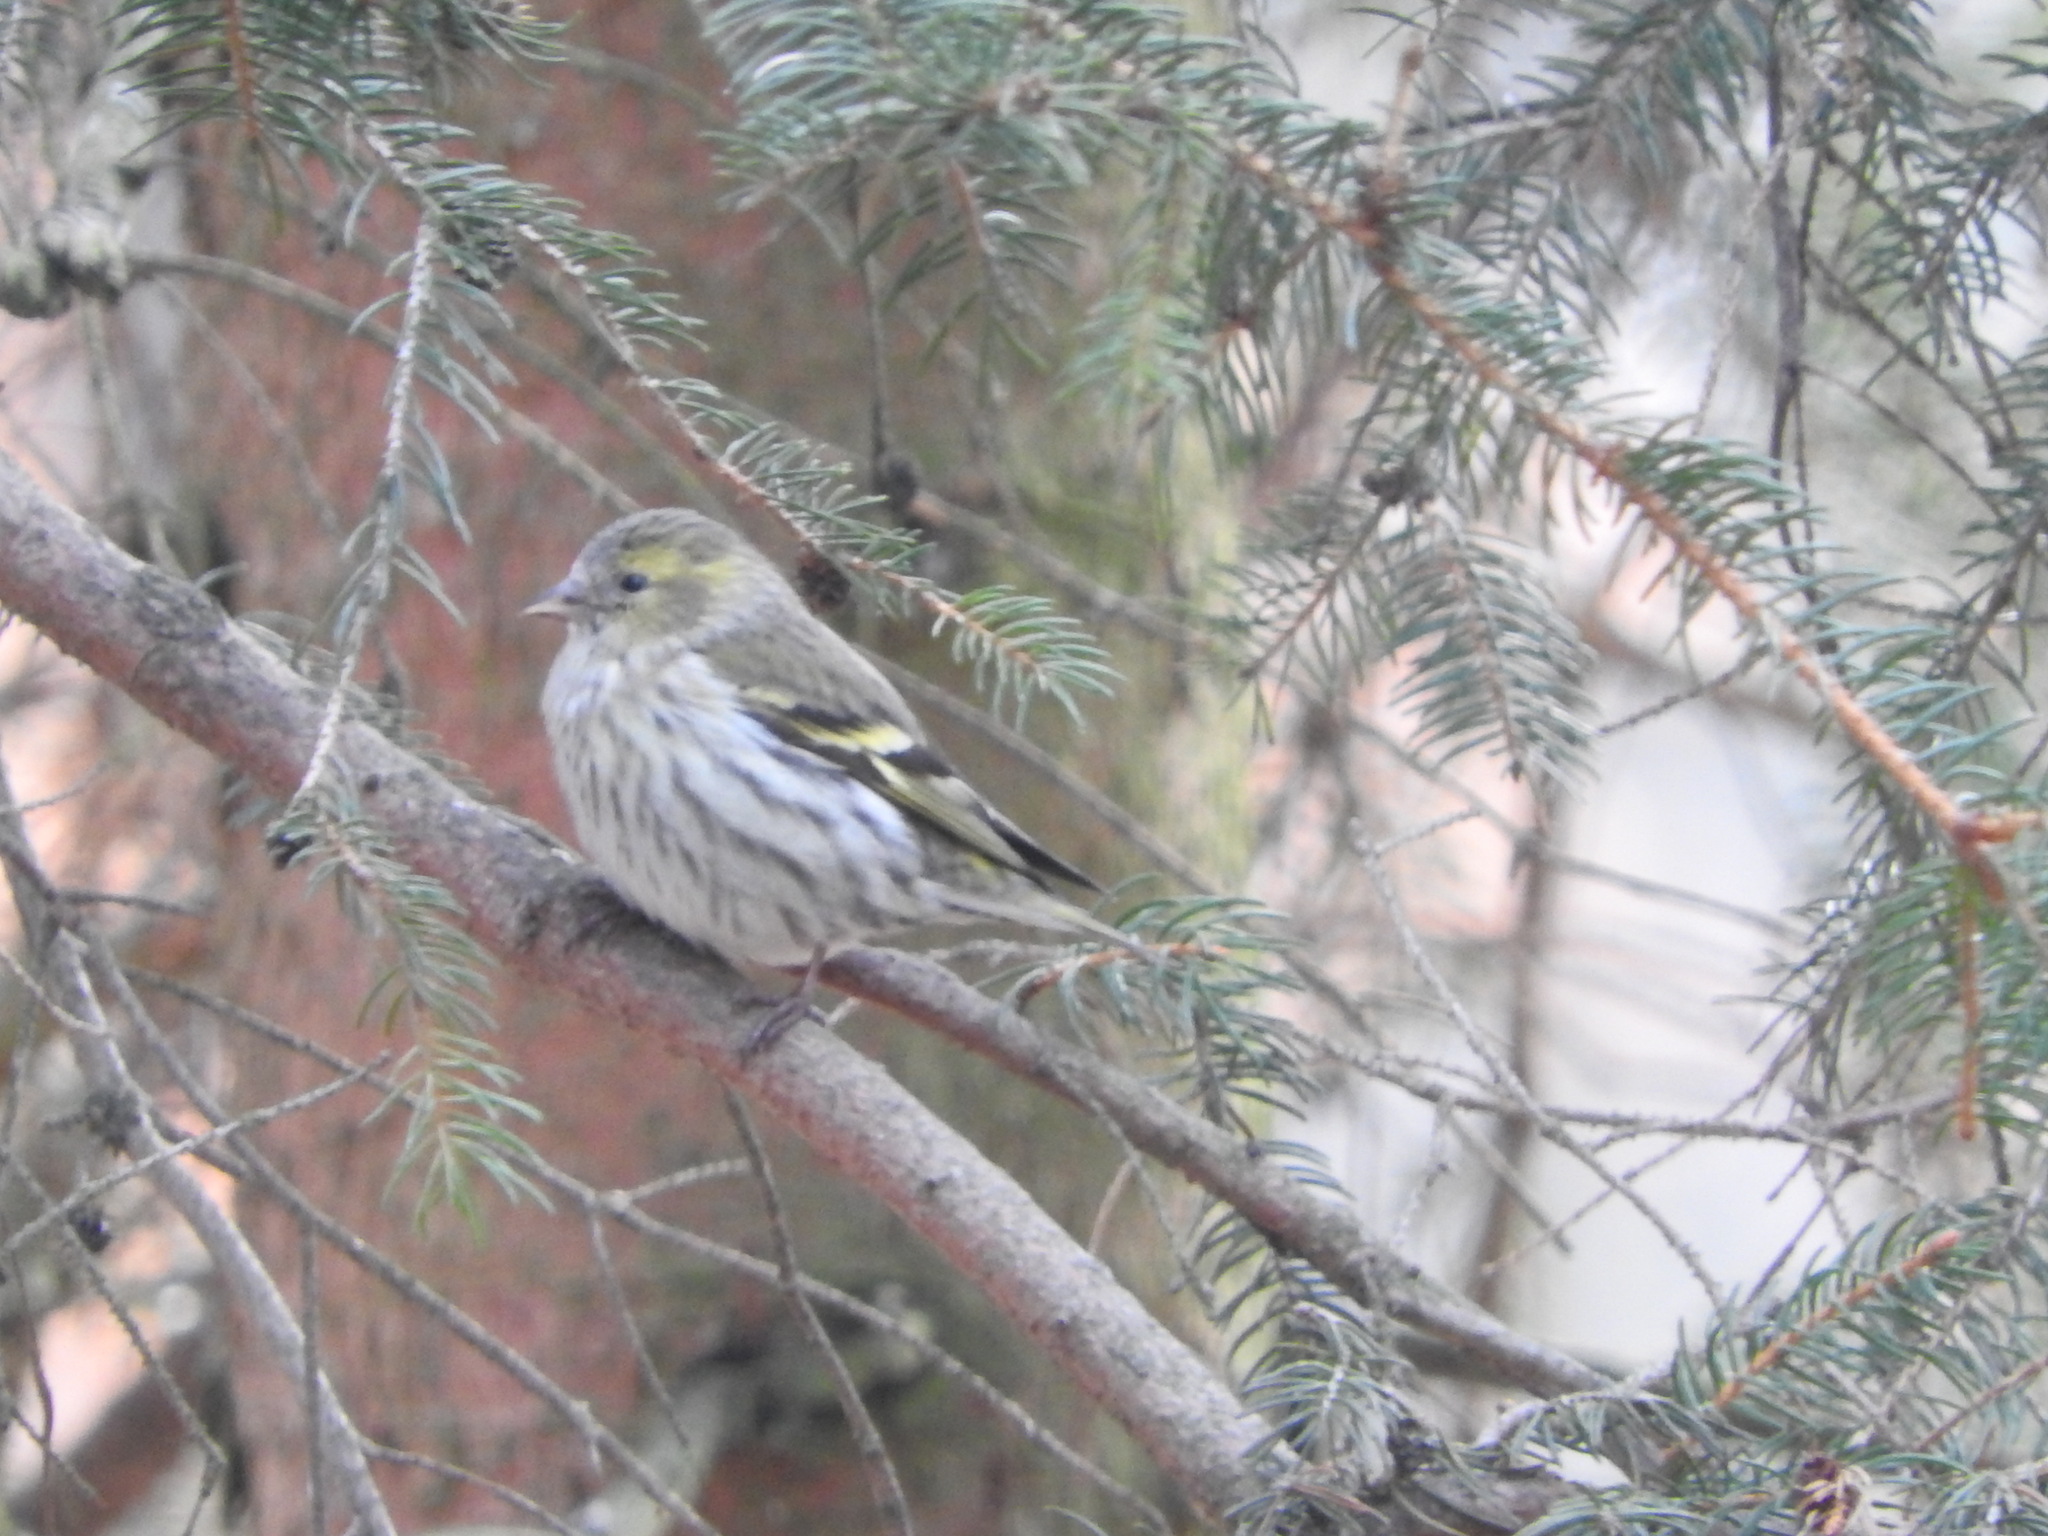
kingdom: Animalia
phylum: Chordata
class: Aves
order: Passeriformes
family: Fringillidae
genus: Spinus
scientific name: Spinus spinus
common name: Eurasian siskin
